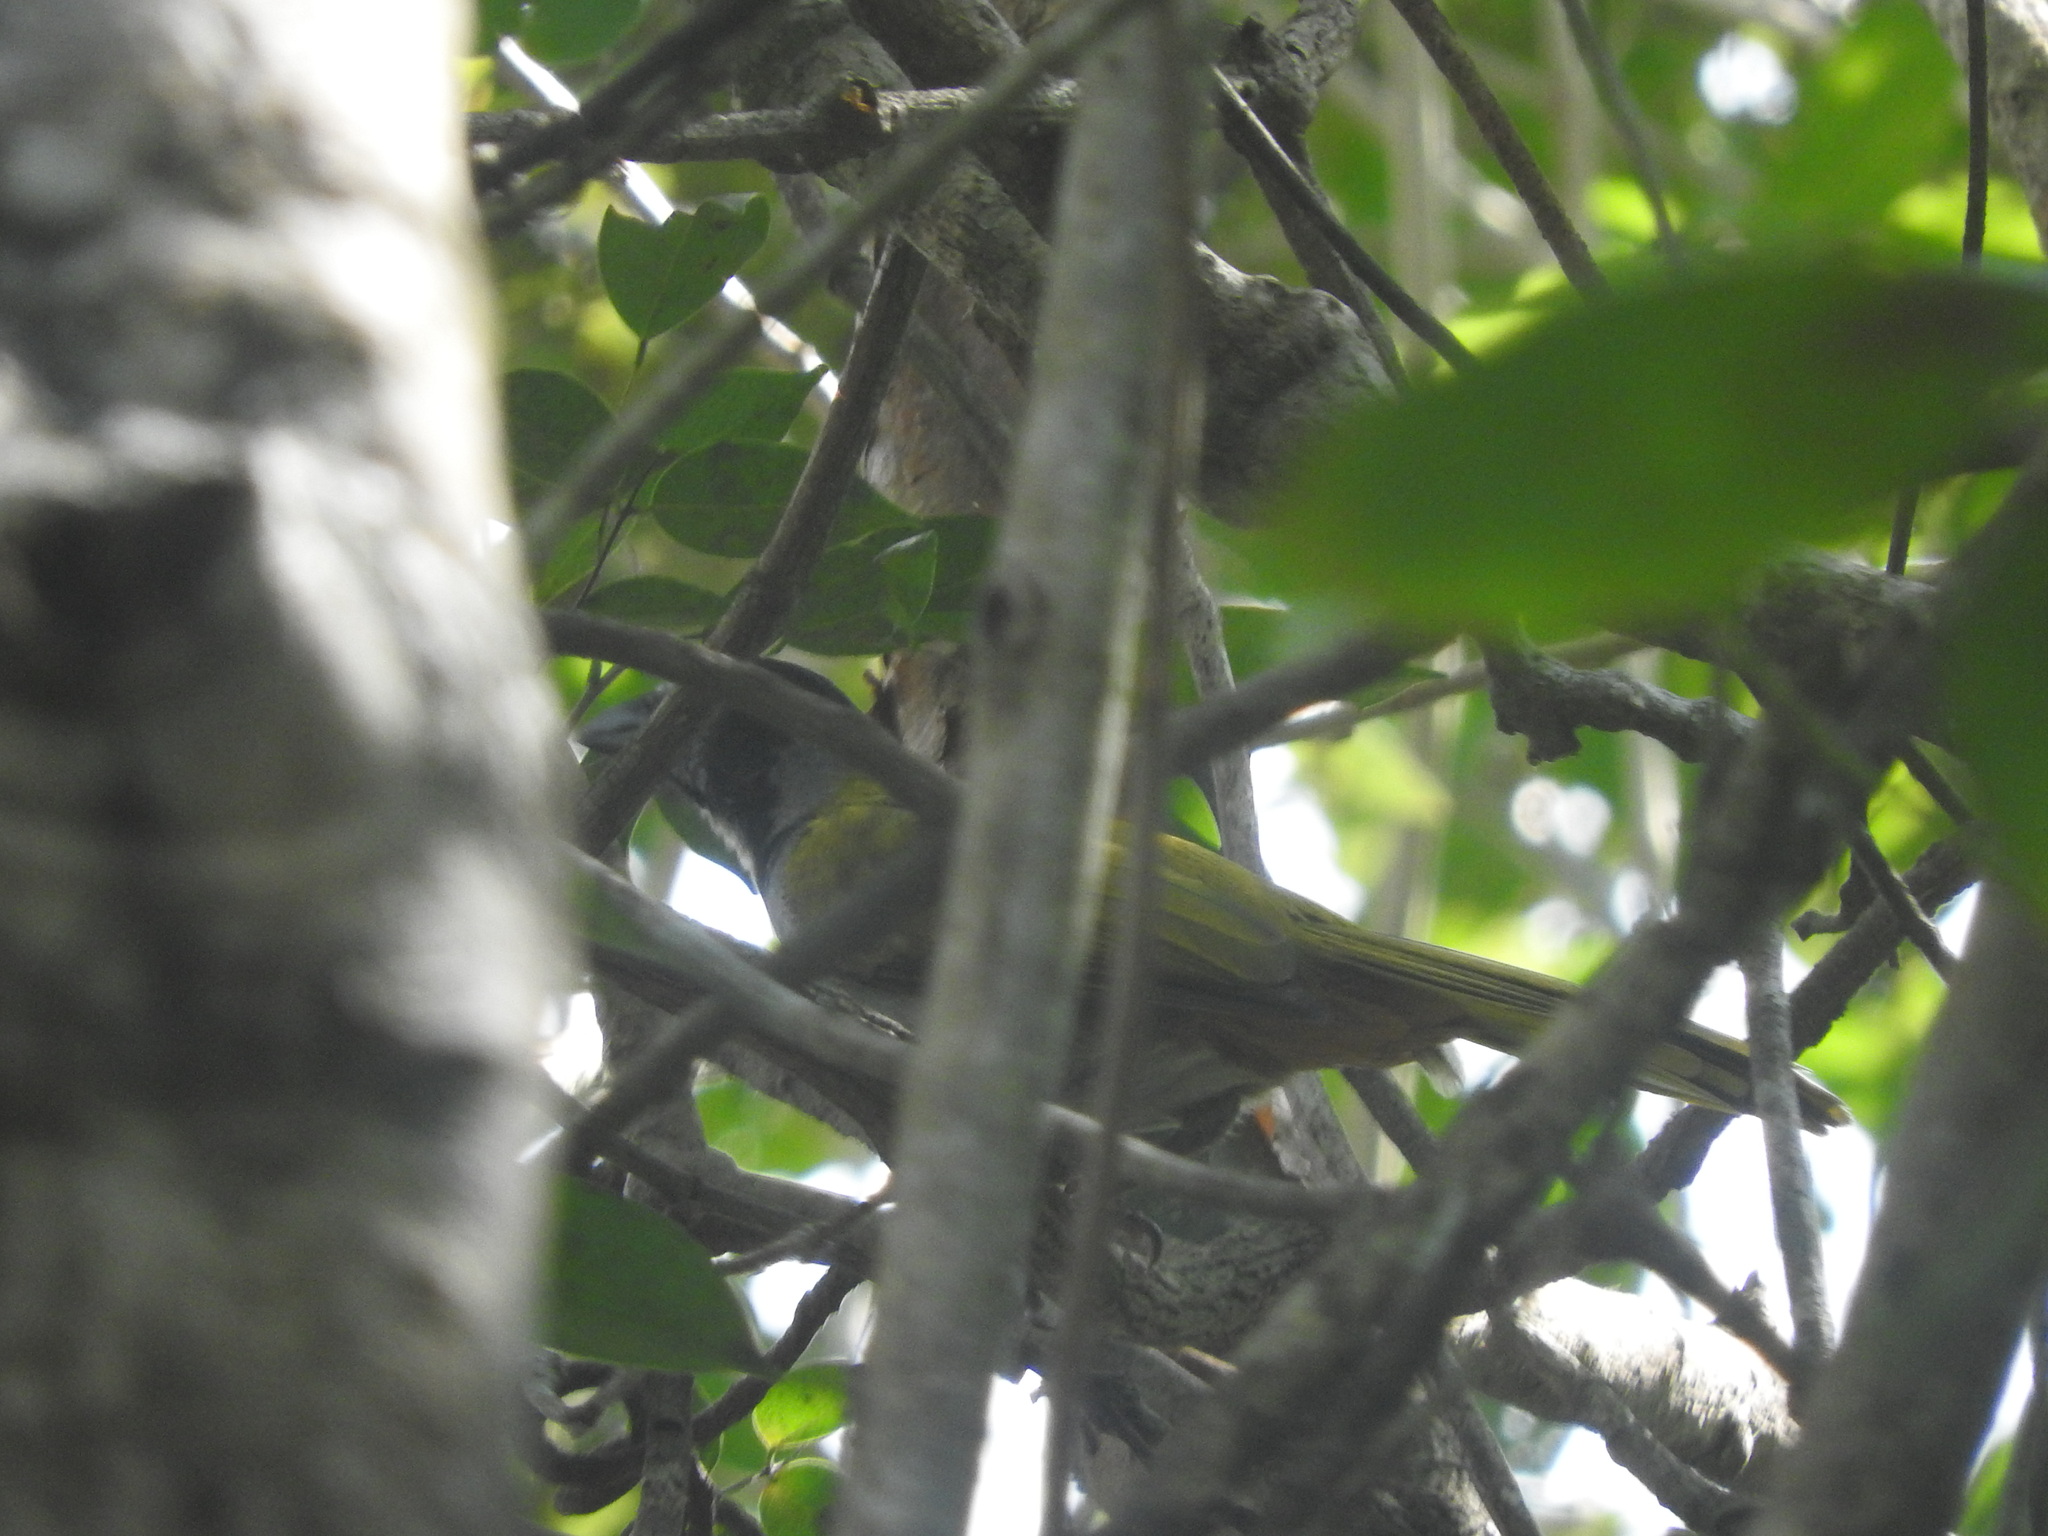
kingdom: Animalia
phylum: Chordata
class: Aves
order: Passeriformes
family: Thraupidae
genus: Saltator
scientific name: Saltator atriceps
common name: Black-headed saltator
